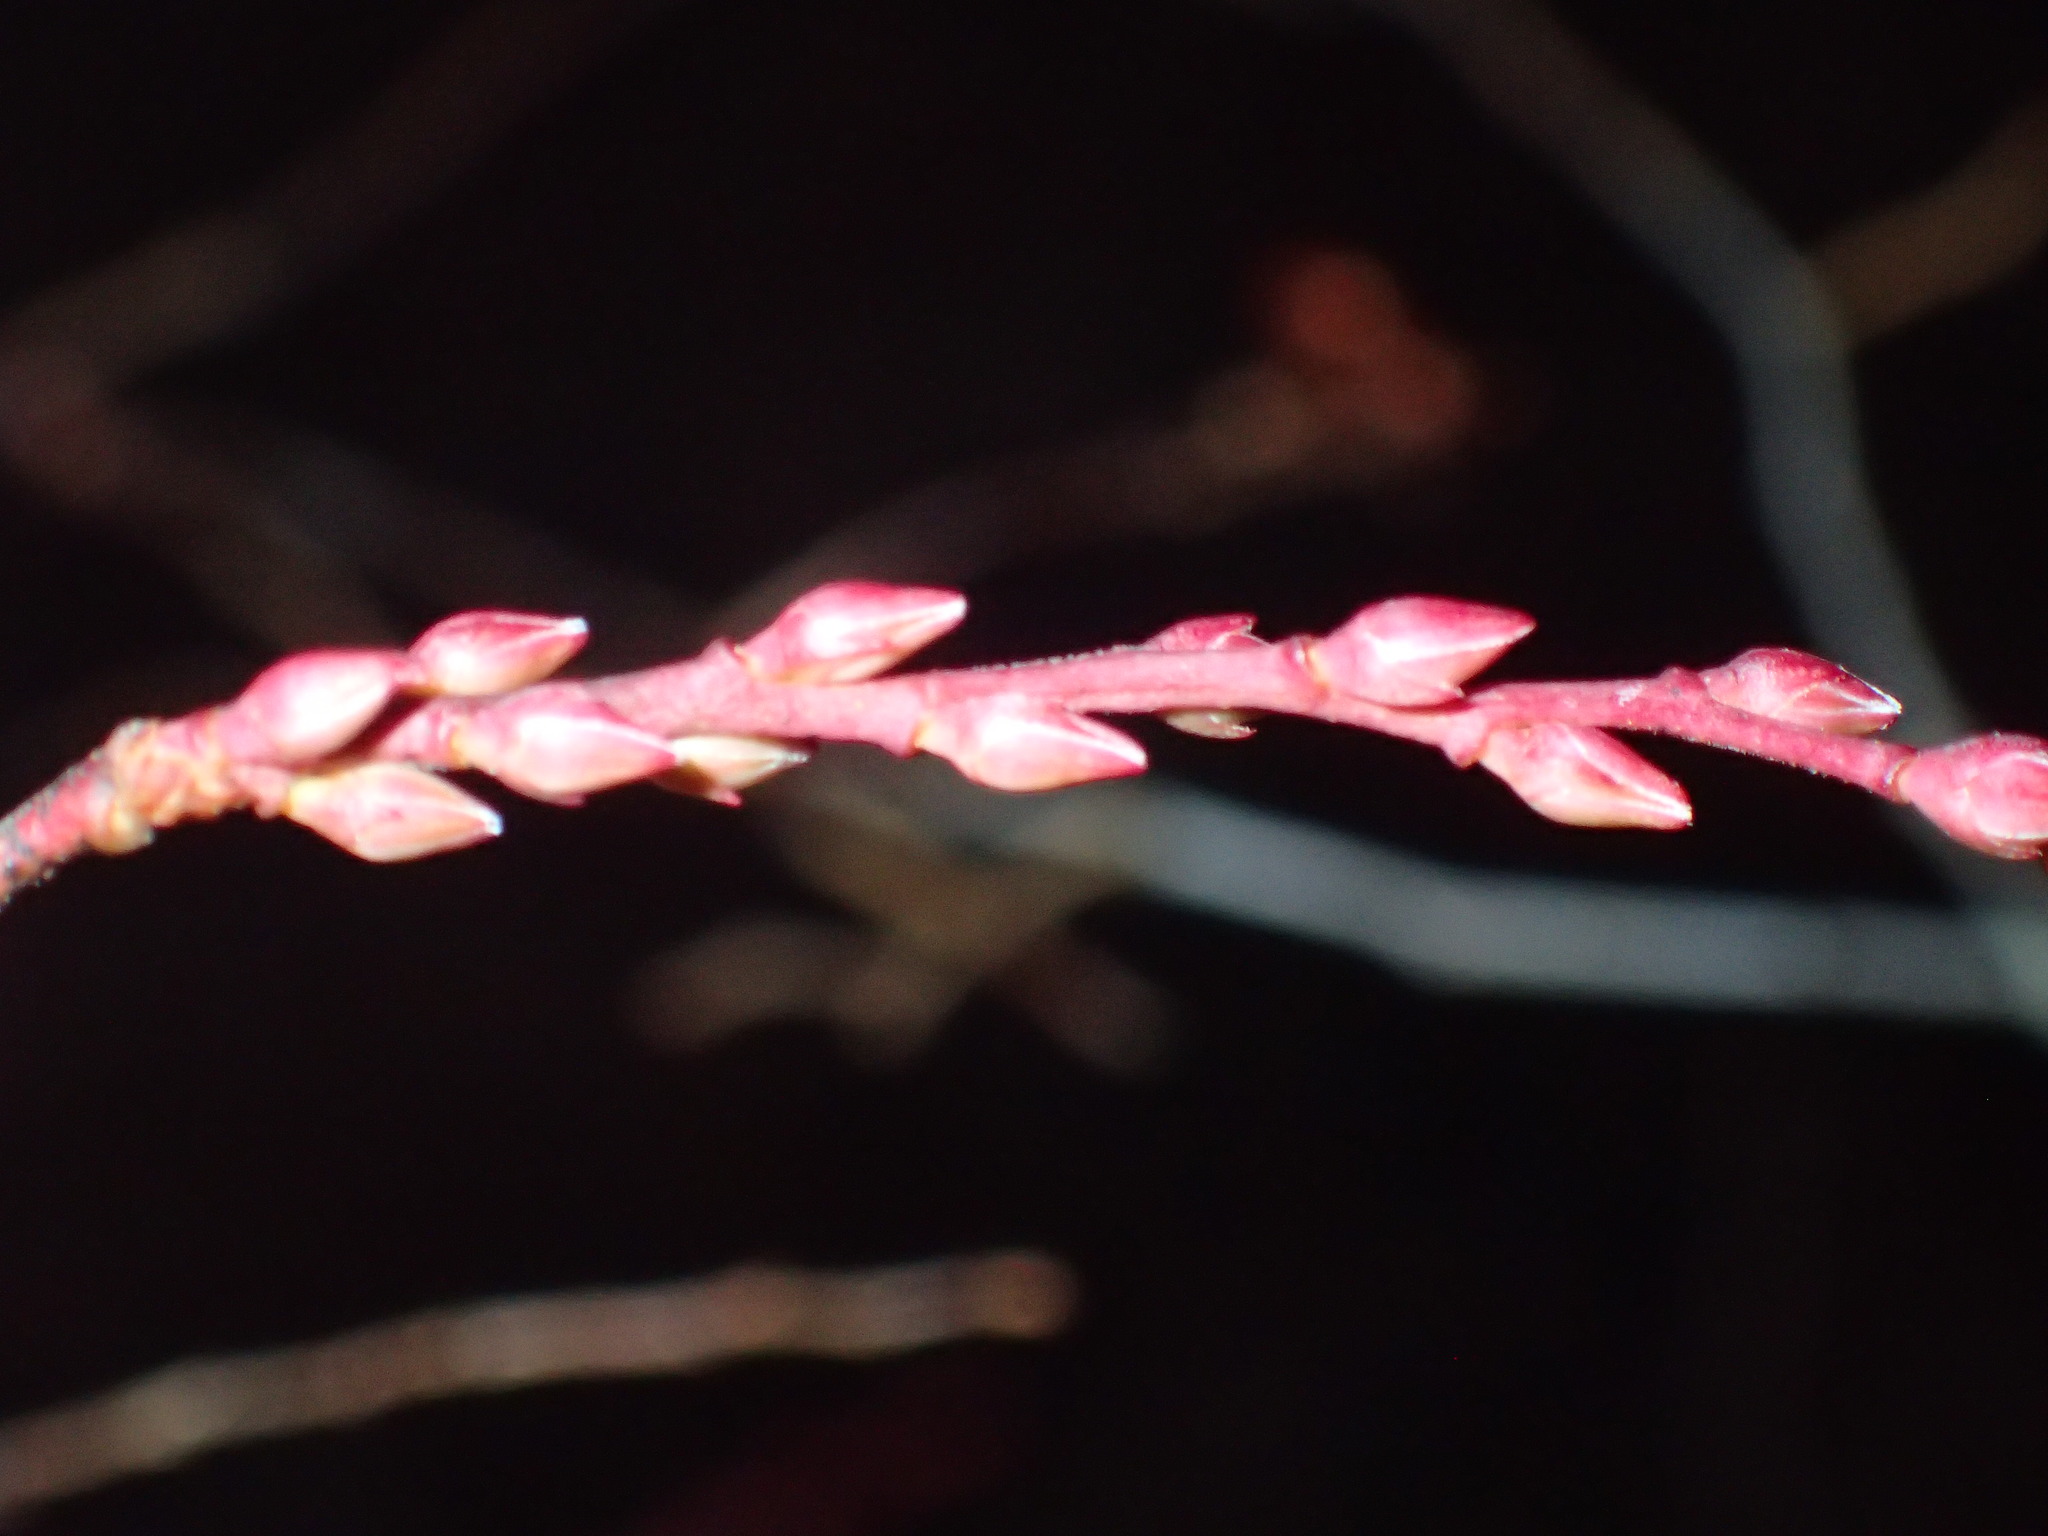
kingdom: Plantae
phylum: Tracheophyta
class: Magnoliopsida
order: Ericales
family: Ericaceae
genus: Eubotrys
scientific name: Eubotrys racemosa
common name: Fetterbush
